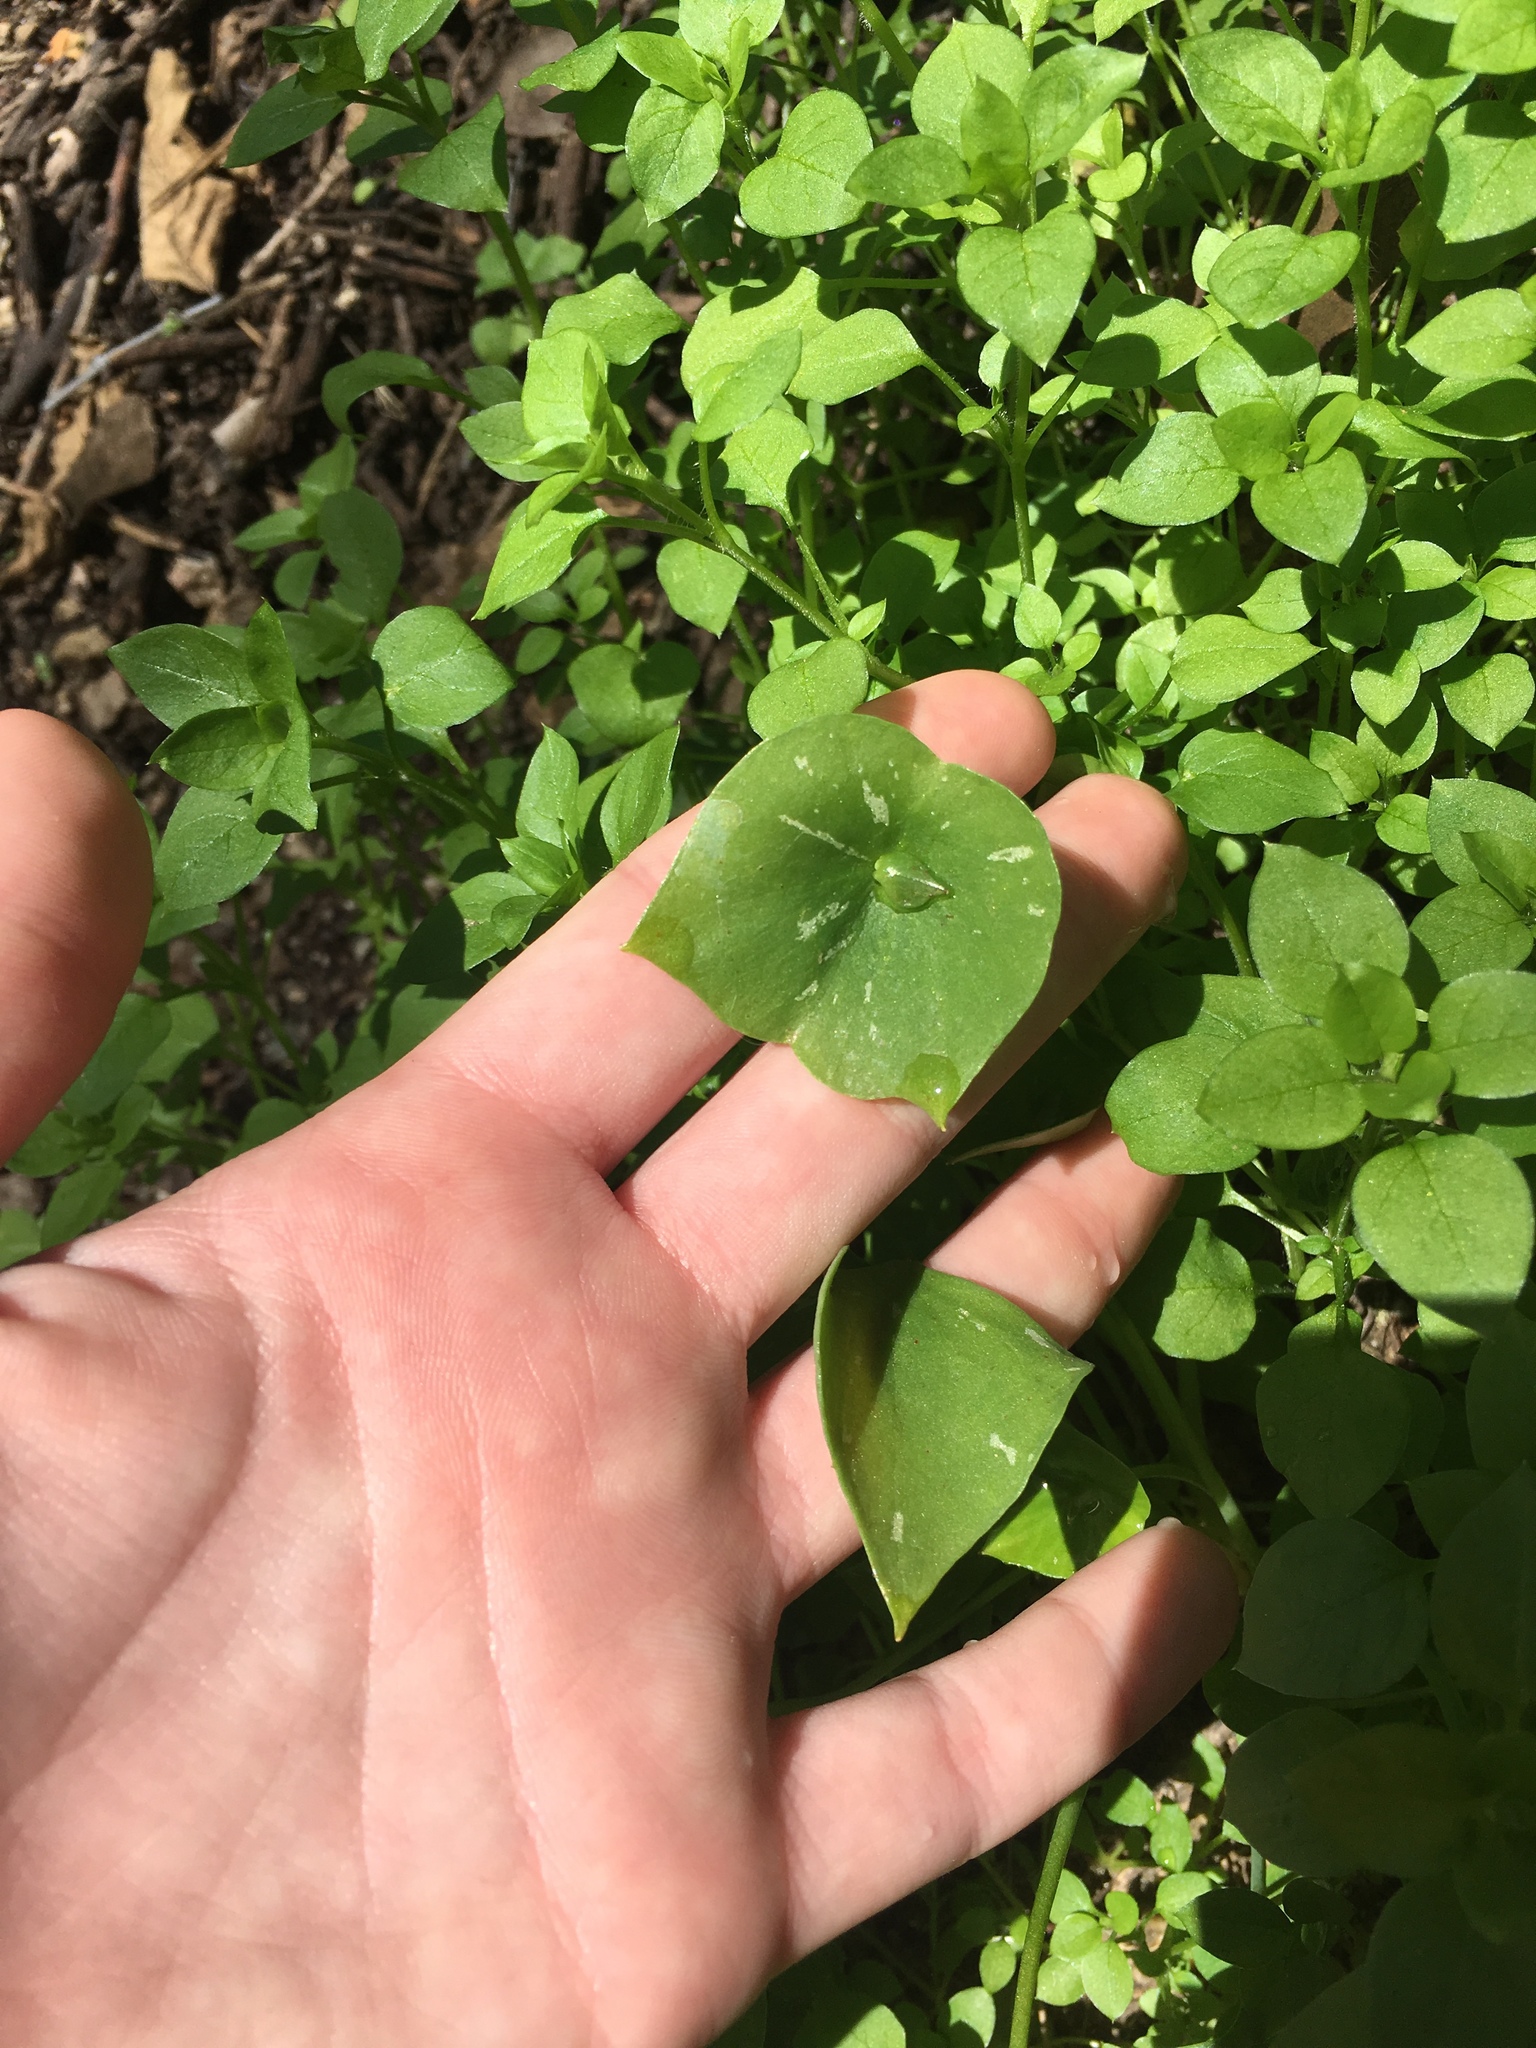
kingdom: Plantae
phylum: Tracheophyta
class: Magnoliopsida
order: Caryophyllales
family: Montiaceae
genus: Claytonia
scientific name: Claytonia perfoliata
